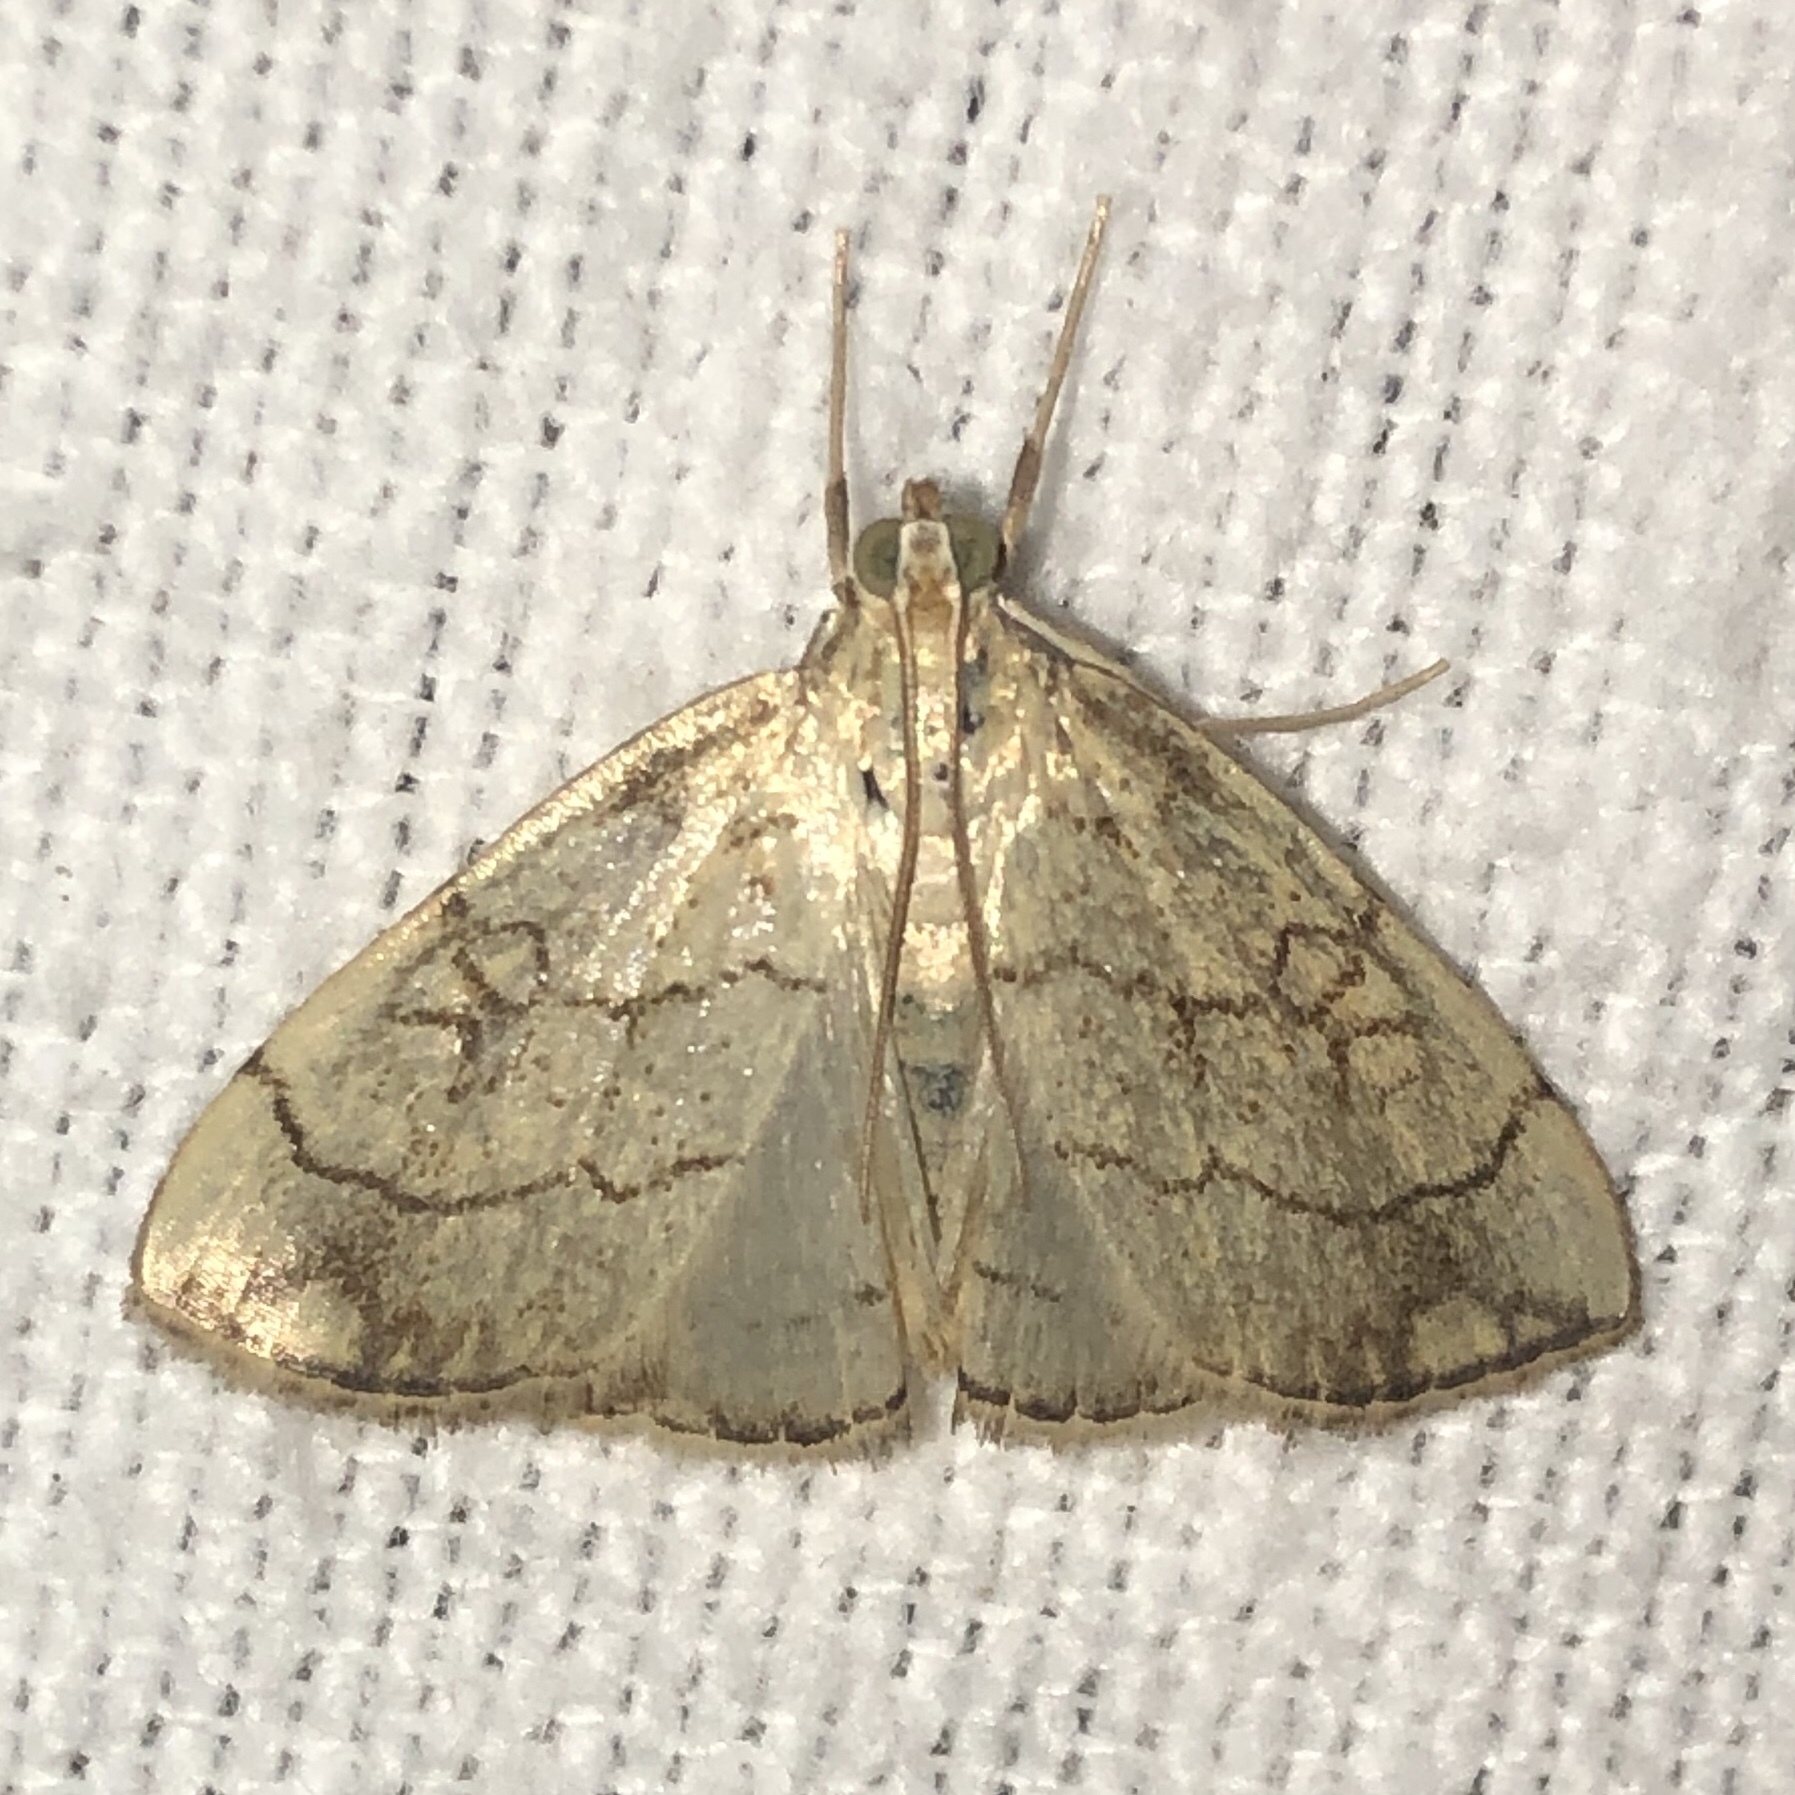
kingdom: Animalia
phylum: Arthropoda
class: Insecta
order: Lepidoptera
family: Crambidae
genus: Evergestis
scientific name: Evergestis pallidata
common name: Chequered pearl
